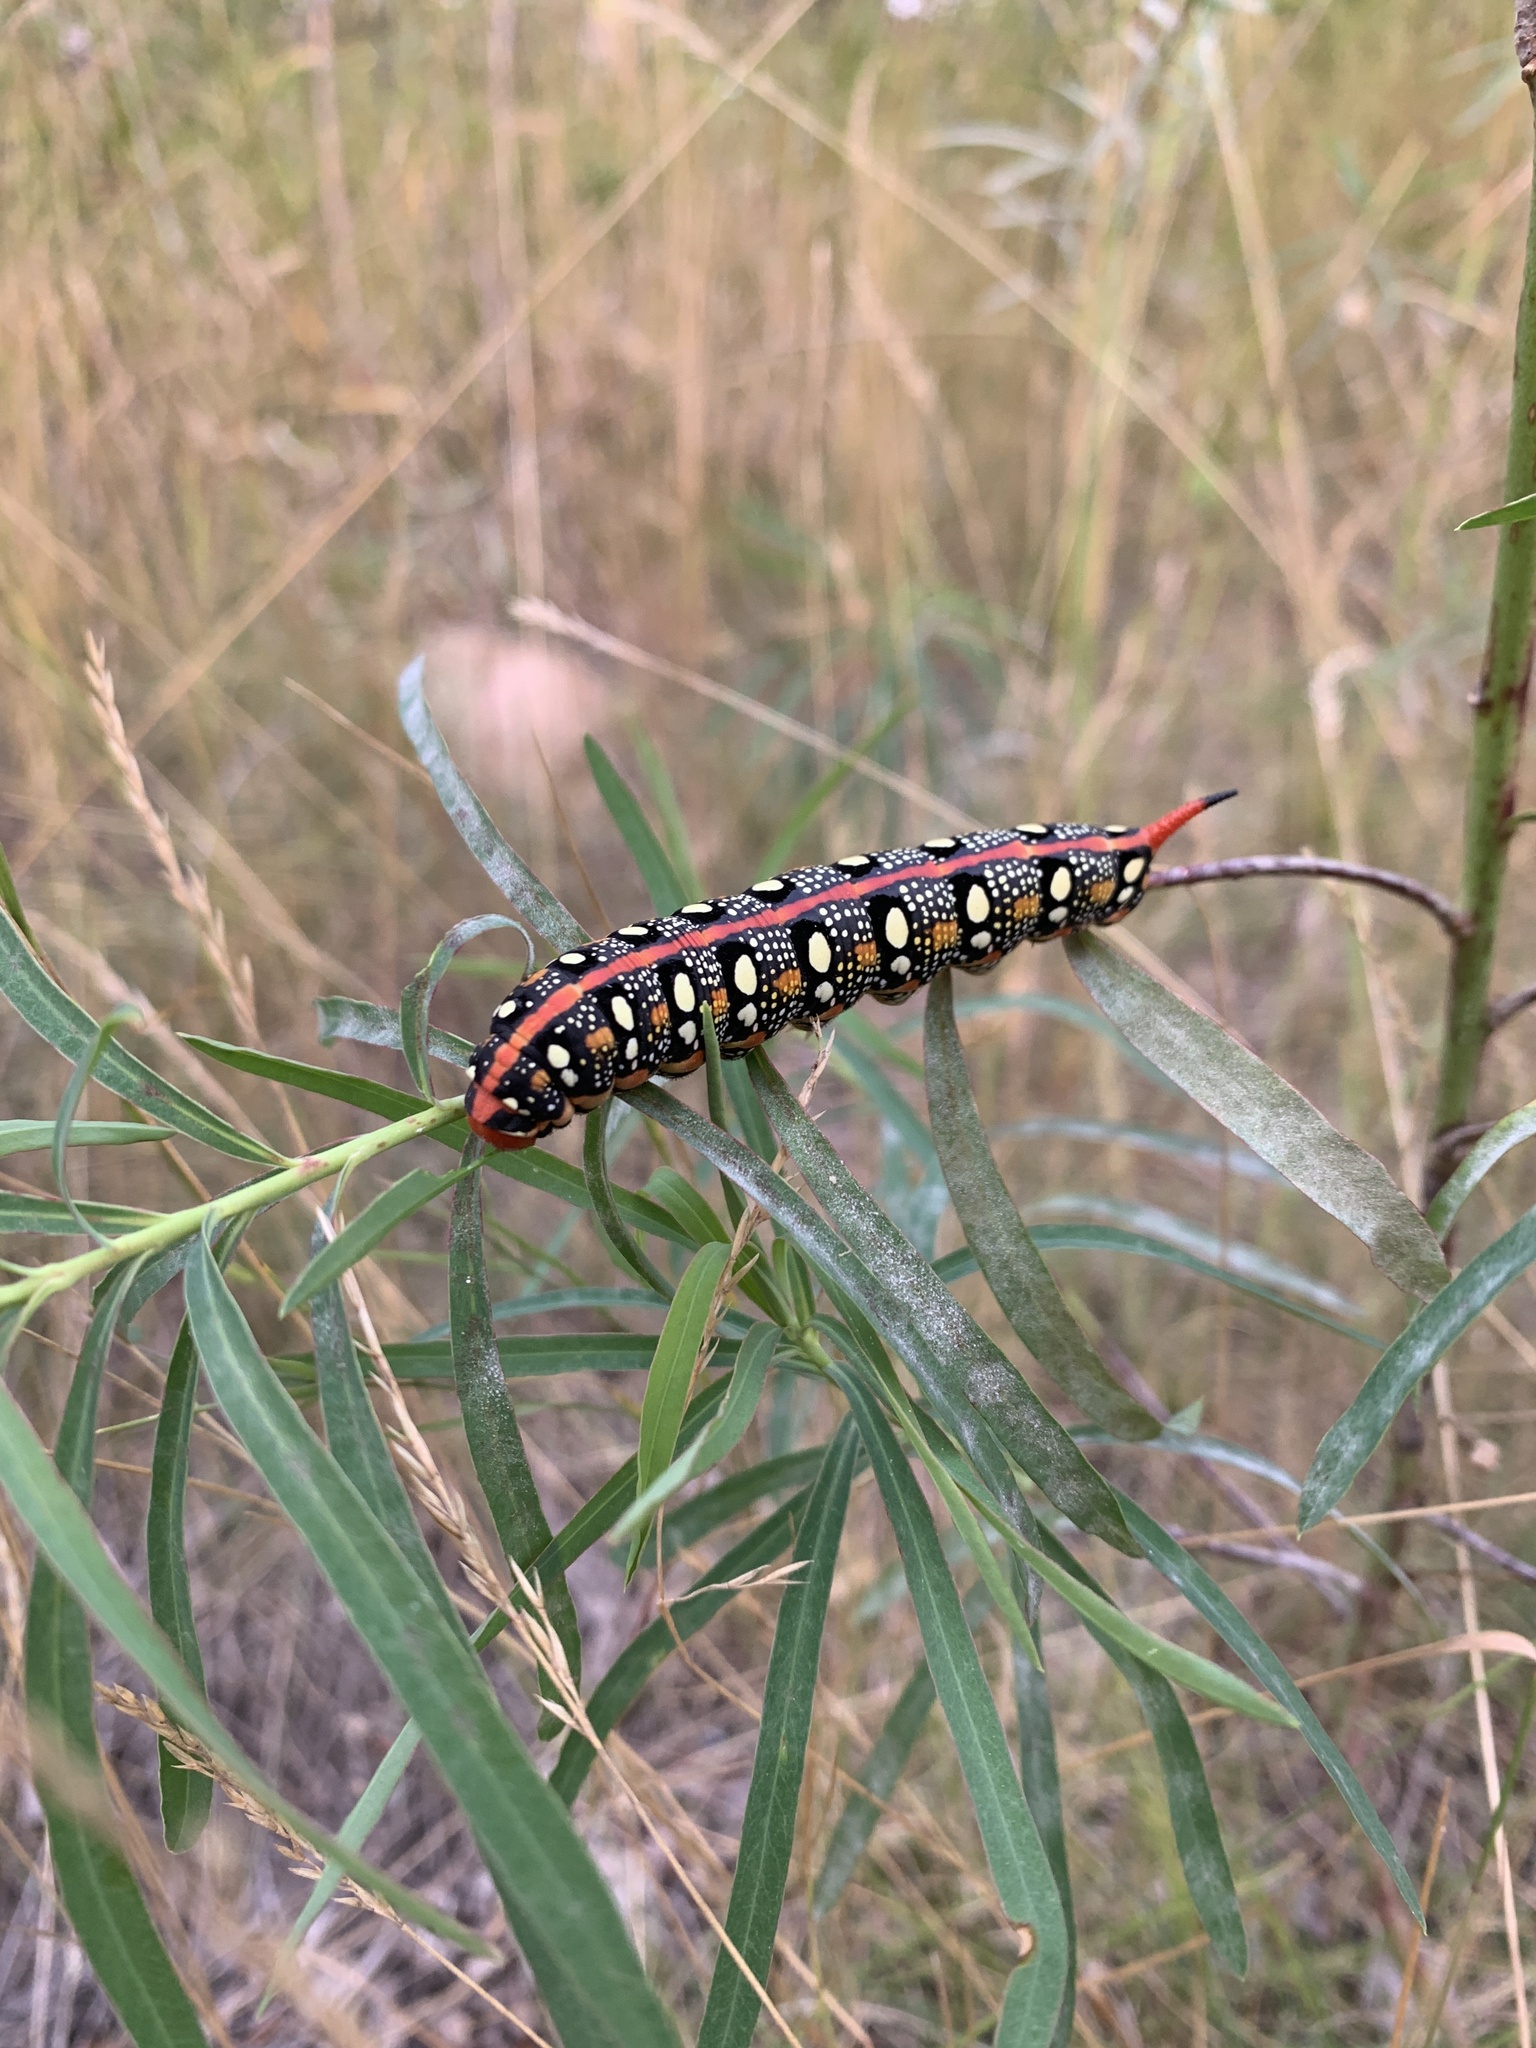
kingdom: Animalia
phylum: Arthropoda
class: Insecta
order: Lepidoptera
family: Sphingidae
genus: Hyles
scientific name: Hyles euphorbiae
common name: Spurge hawk-moth
